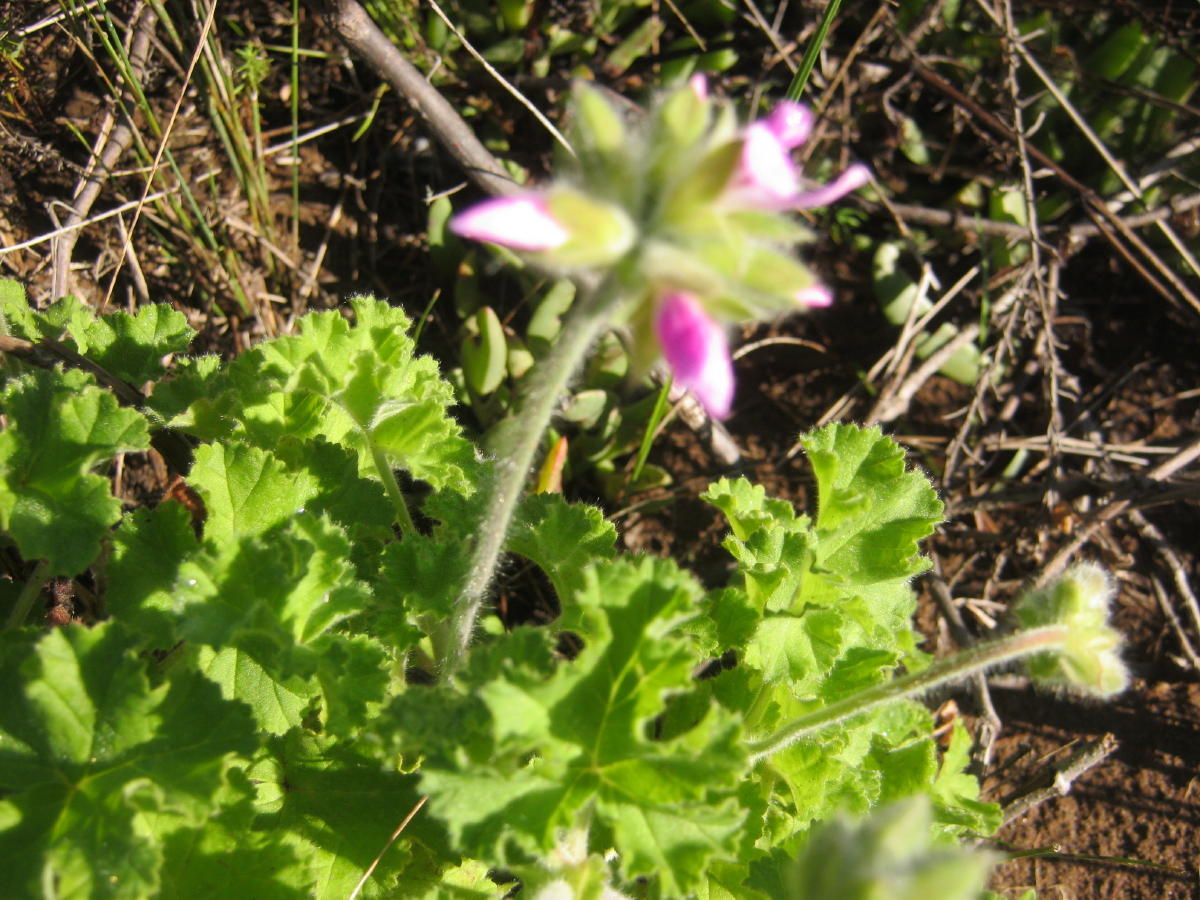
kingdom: Plantae
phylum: Tracheophyta
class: Magnoliopsida
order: Geraniales
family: Geraniaceae
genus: Pelargonium
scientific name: Pelargonium capitatum
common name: Rose scented geranium
